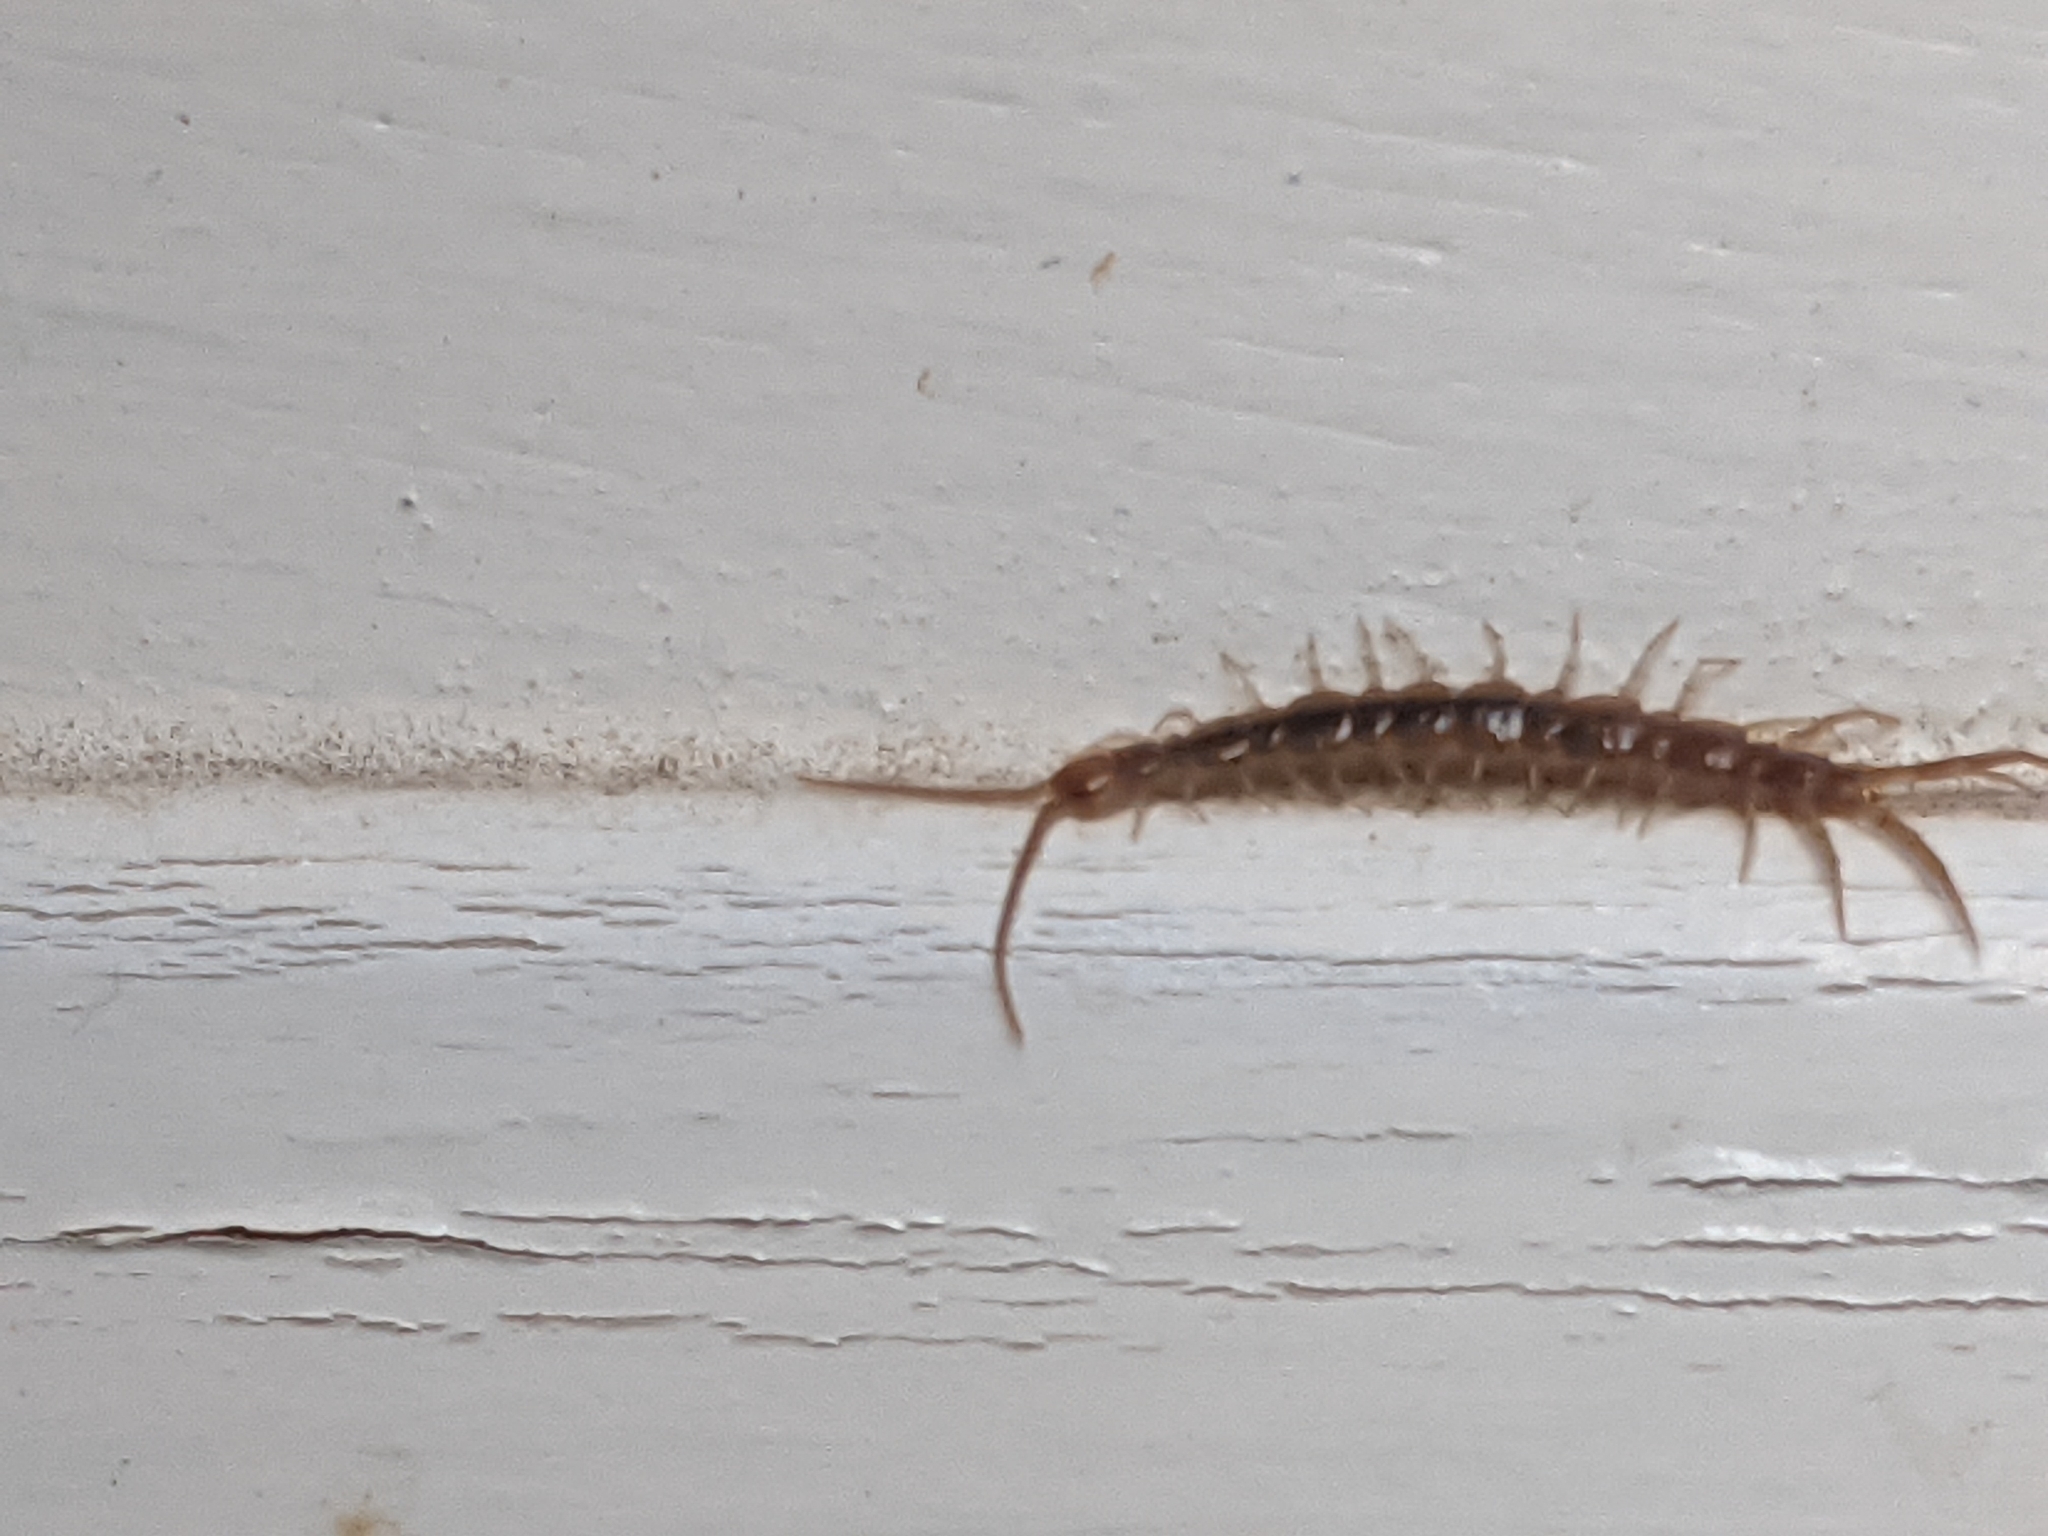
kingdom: Animalia
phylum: Arthropoda
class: Chilopoda
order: Lithobiomorpha
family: Lithobiidae
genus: Lithobius
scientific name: Lithobius melanops
